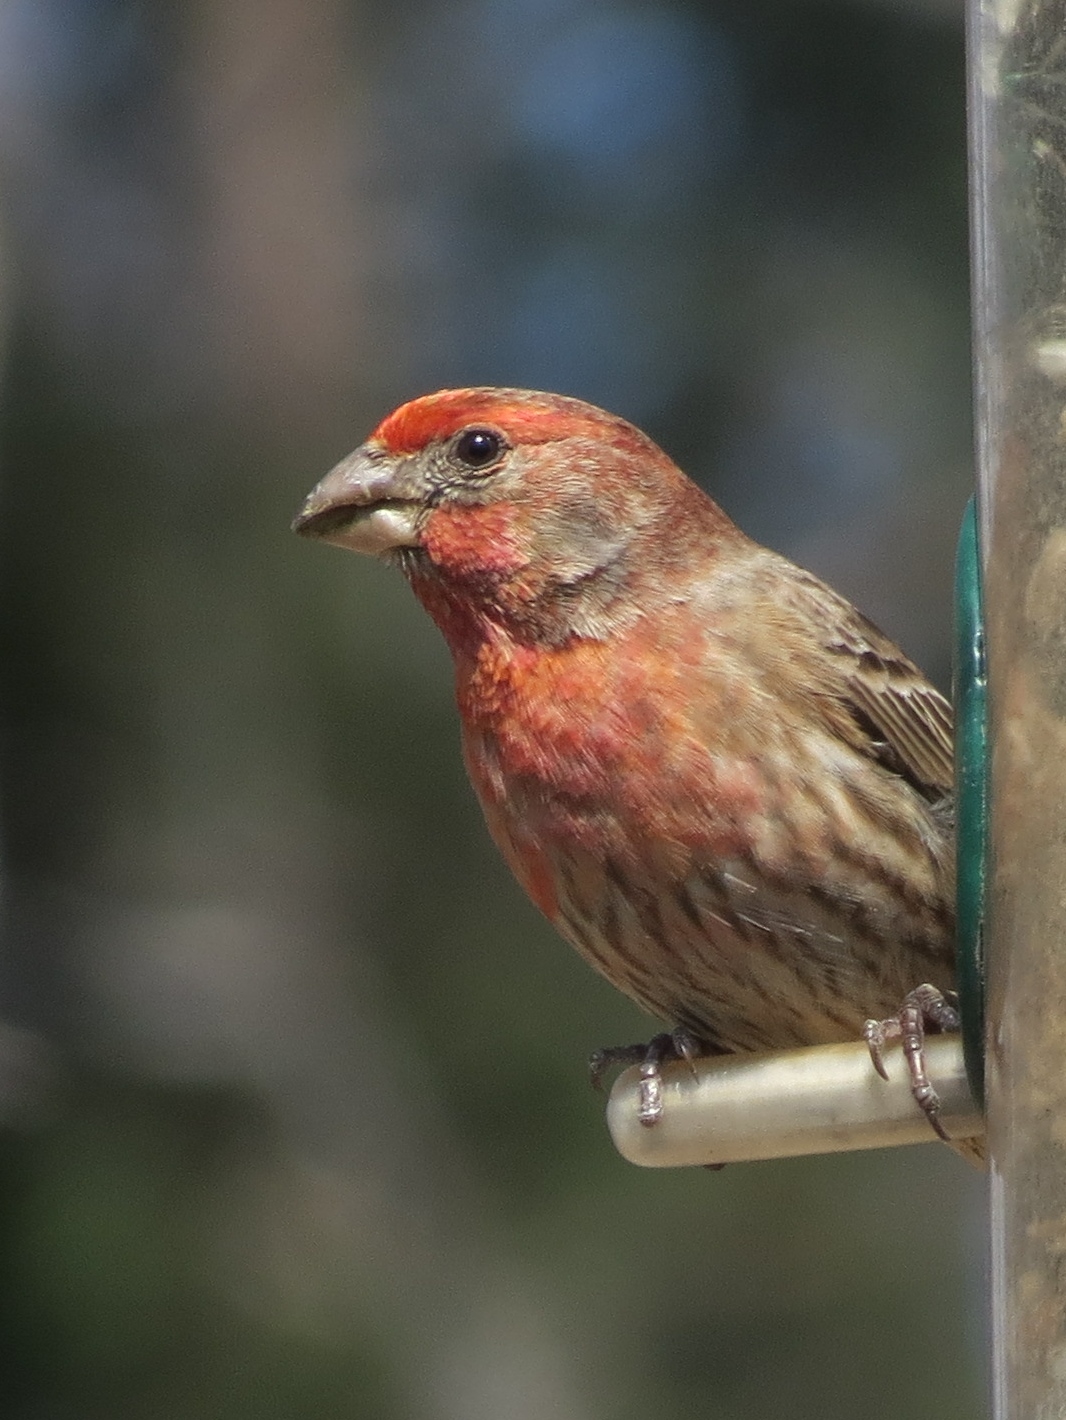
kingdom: Animalia
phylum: Chordata
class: Aves
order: Passeriformes
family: Fringillidae
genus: Haemorhous
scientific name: Haemorhous mexicanus
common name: House finch
